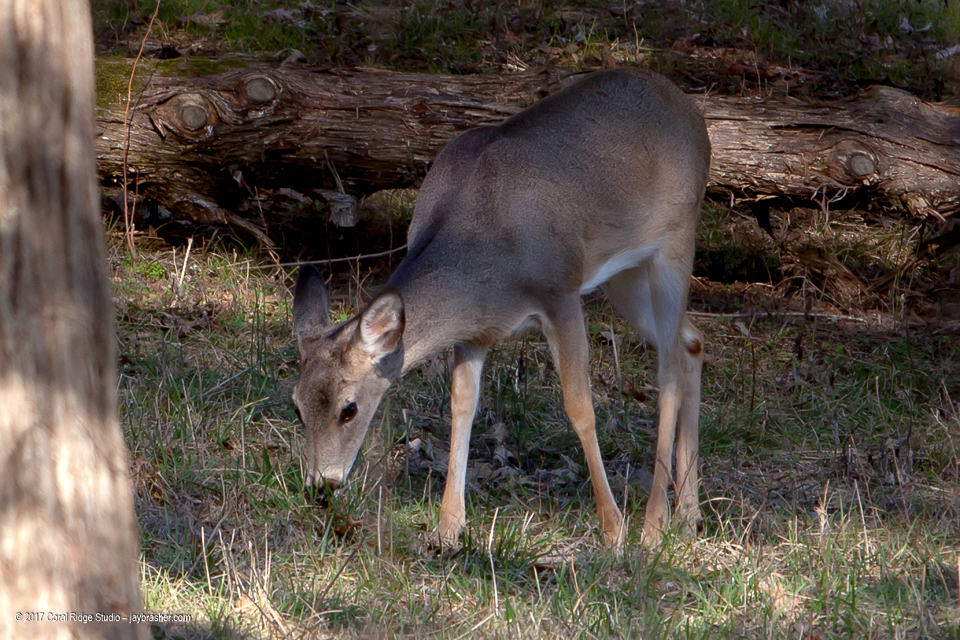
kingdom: Animalia
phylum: Chordata
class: Mammalia
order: Artiodactyla
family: Cervidae
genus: Odocoileus
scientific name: Odocoileus virginianus
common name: White-tailed deer
